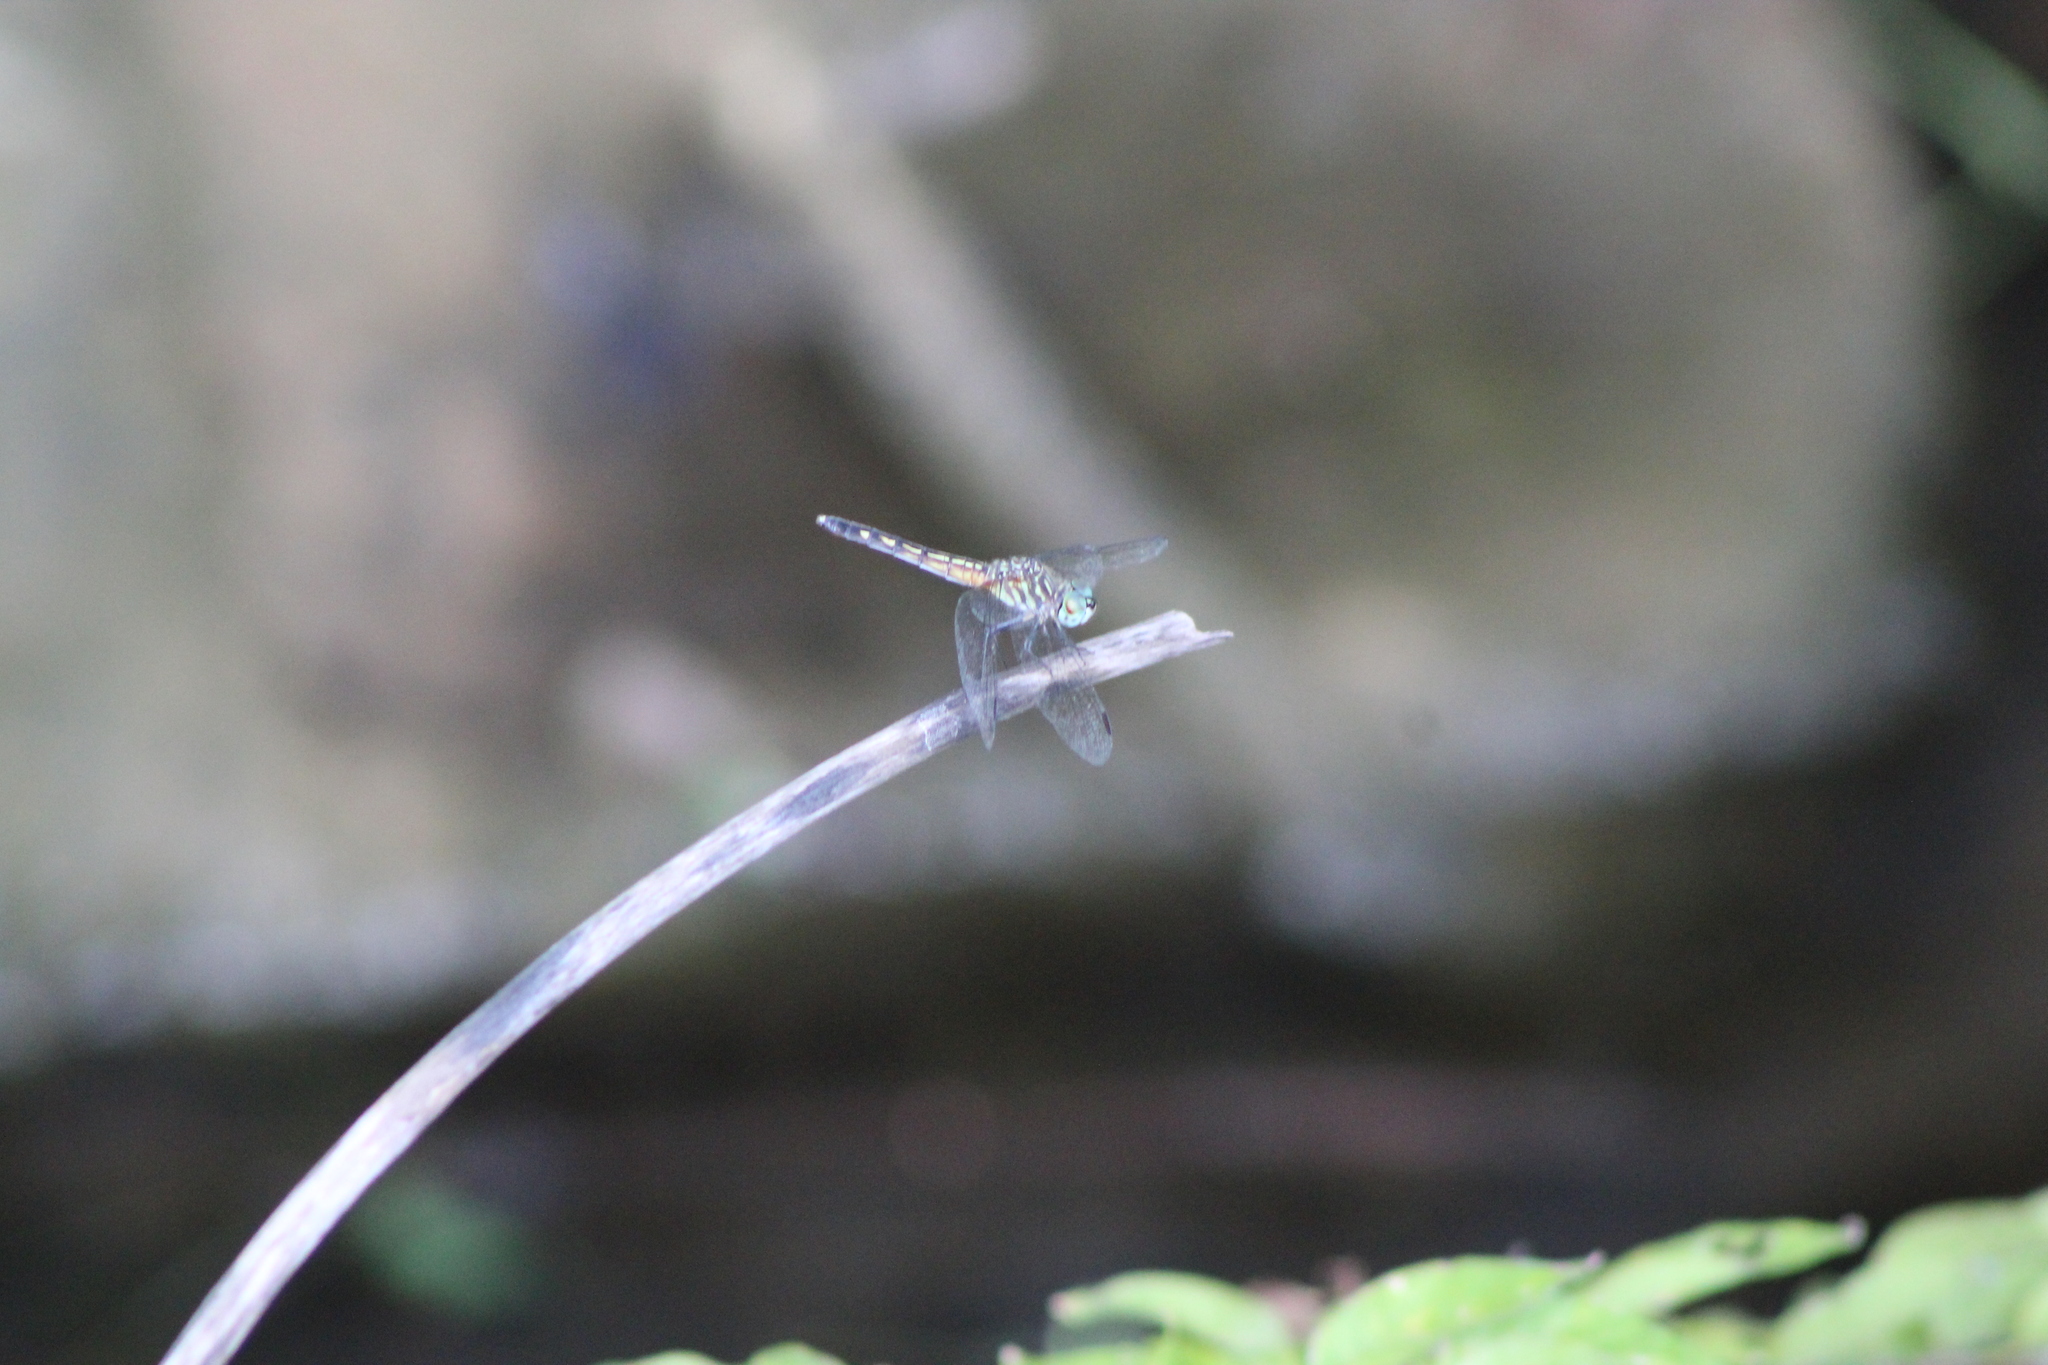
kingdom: Animalia
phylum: Arthropoda
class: Insecta
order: Odonata
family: Libellulidae
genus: Pachydiplax
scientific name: Pachydiplax longipennis
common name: Blue dasher
